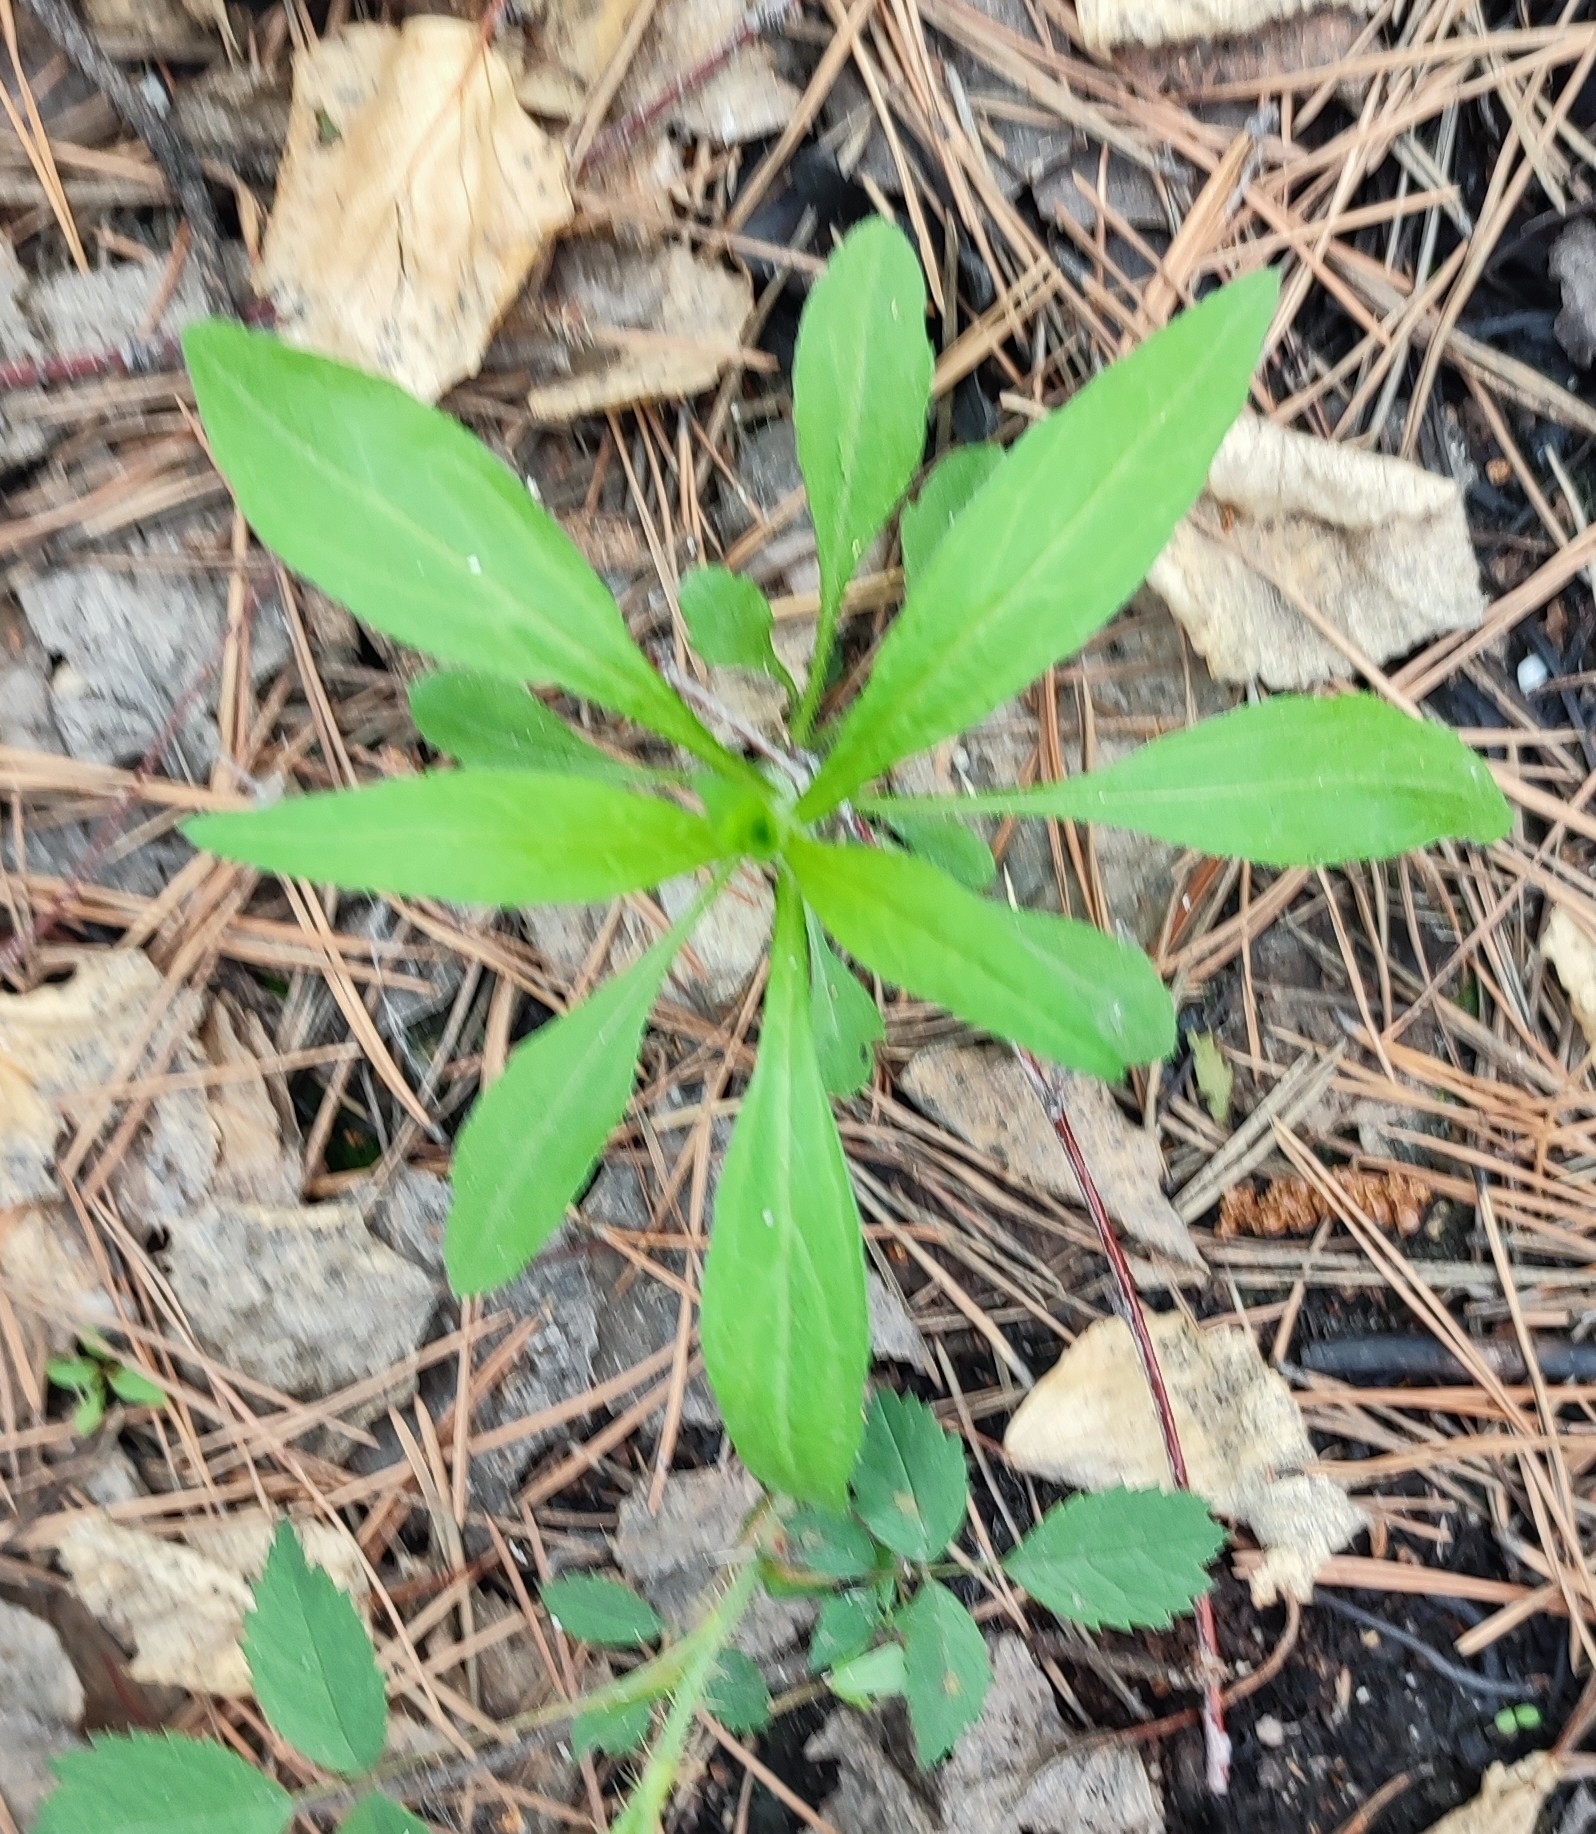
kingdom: Plantae
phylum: Tracheophyta
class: Magnoliopsida
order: Asterales
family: Asteraceae
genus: Solidago
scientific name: Solidago virgaurea
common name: Goldenrod
